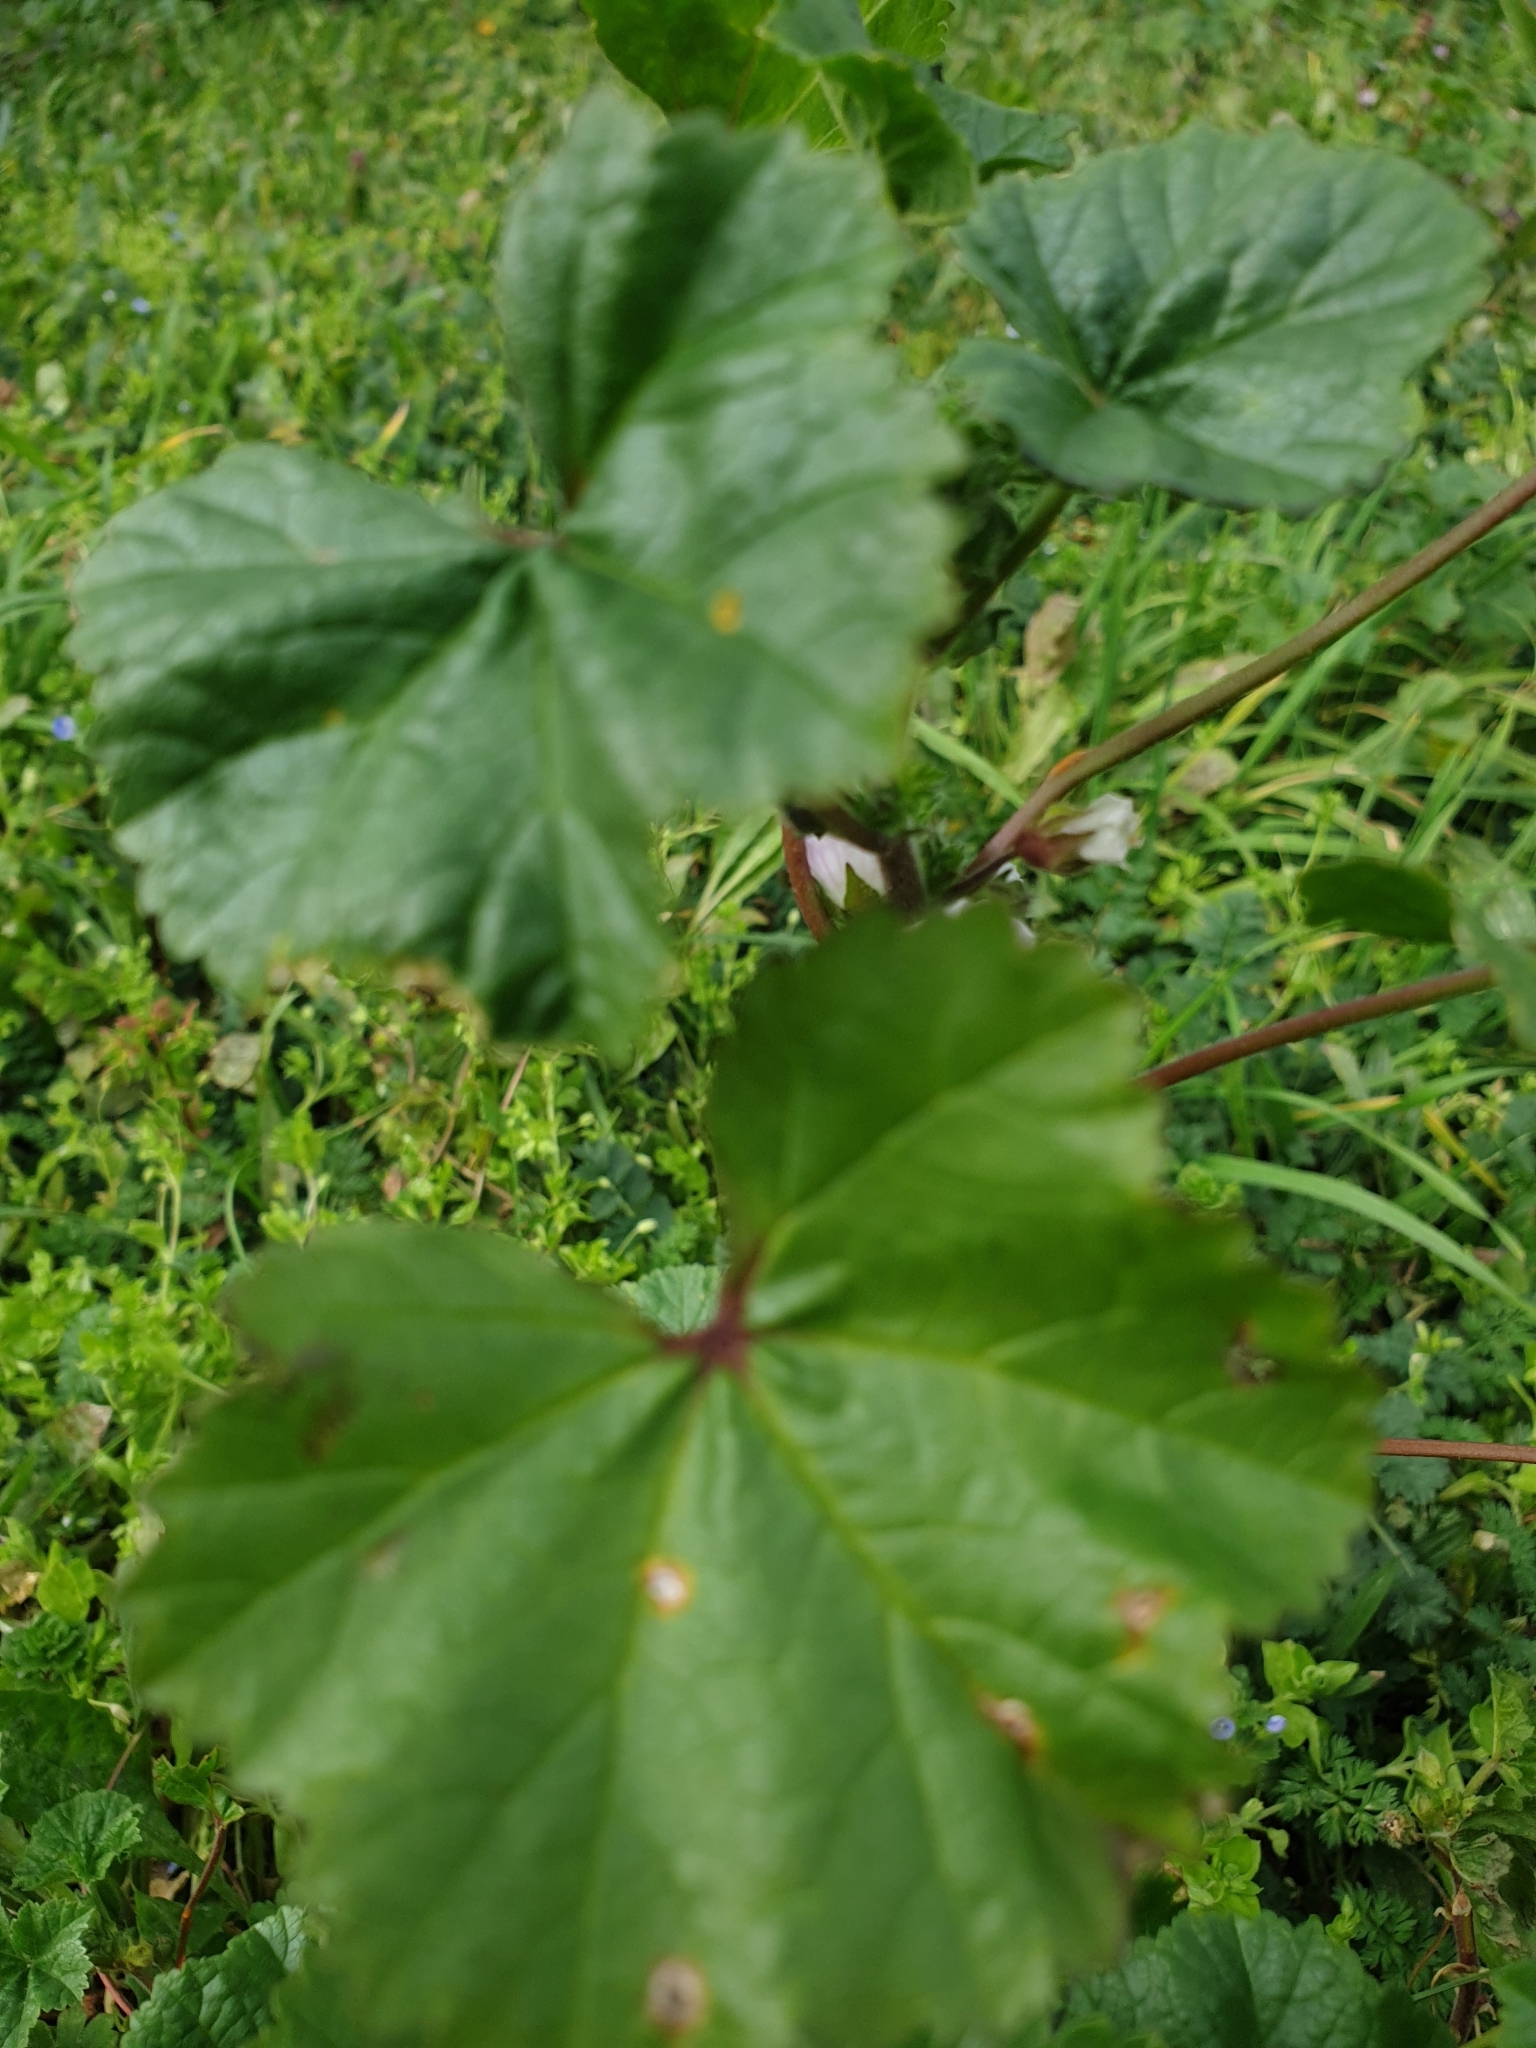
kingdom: Plantae
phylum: Tracheophyta
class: Magnoliopsida
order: Malvales
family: Malvaceae
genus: Malva
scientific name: Malva neglecta
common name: Common mallow
